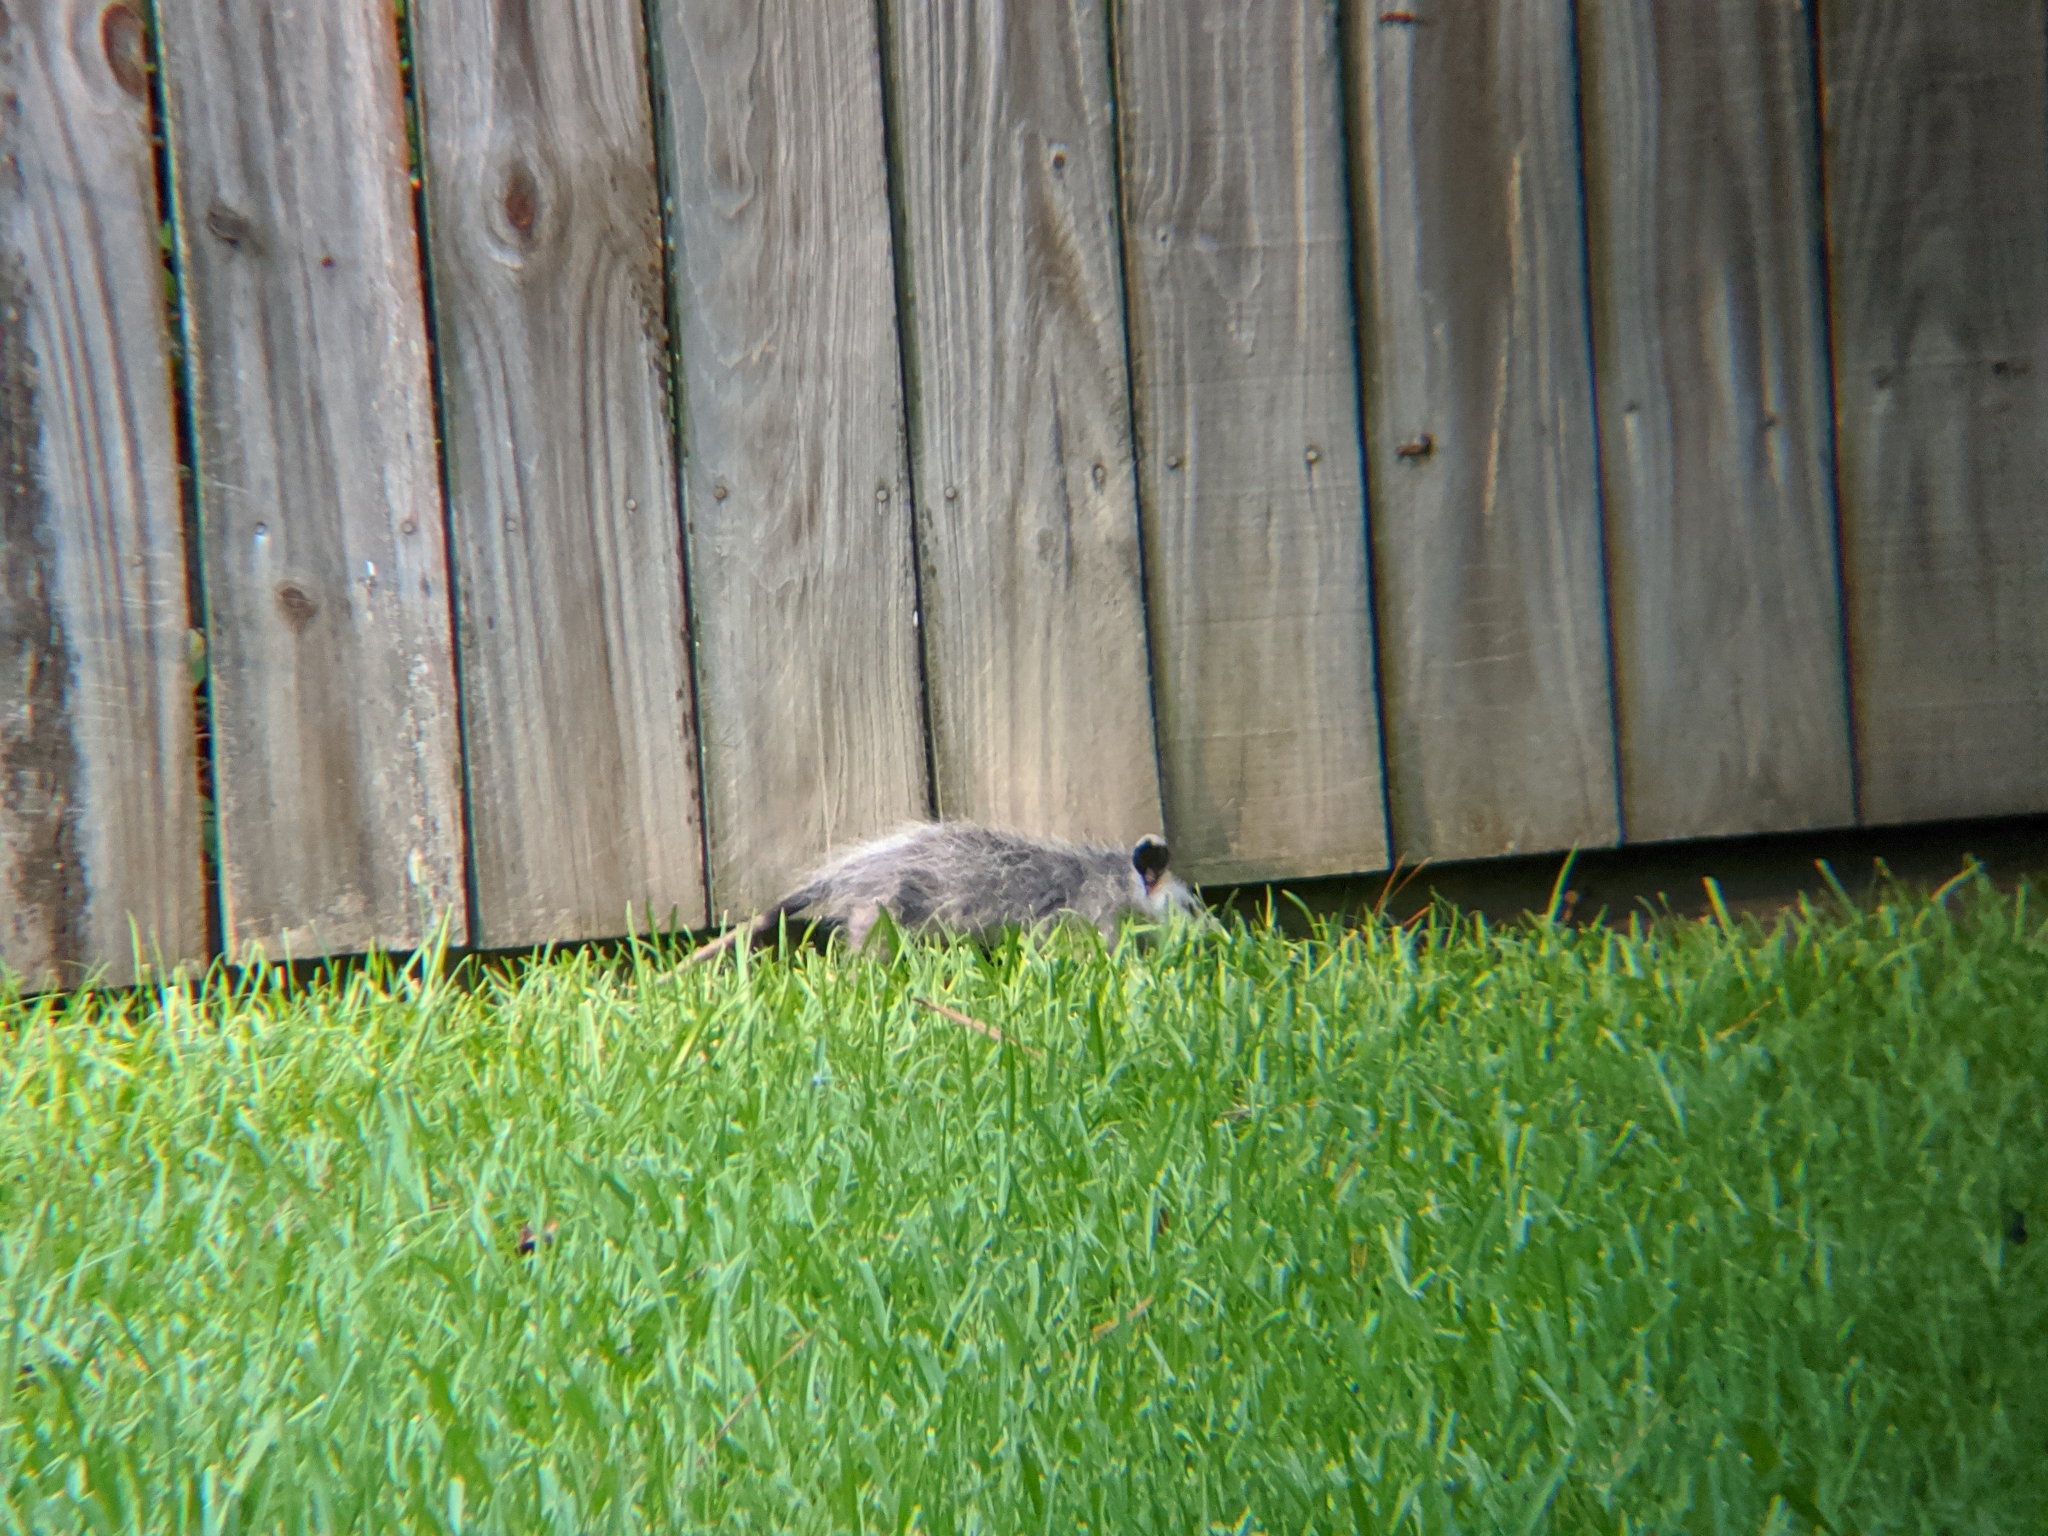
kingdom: Animalia
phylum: Chordata
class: Mammalia
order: Didelphimorphia
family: Didelphidae
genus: Didelphis
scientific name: Didelphis virginiana
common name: Virginia opossum
